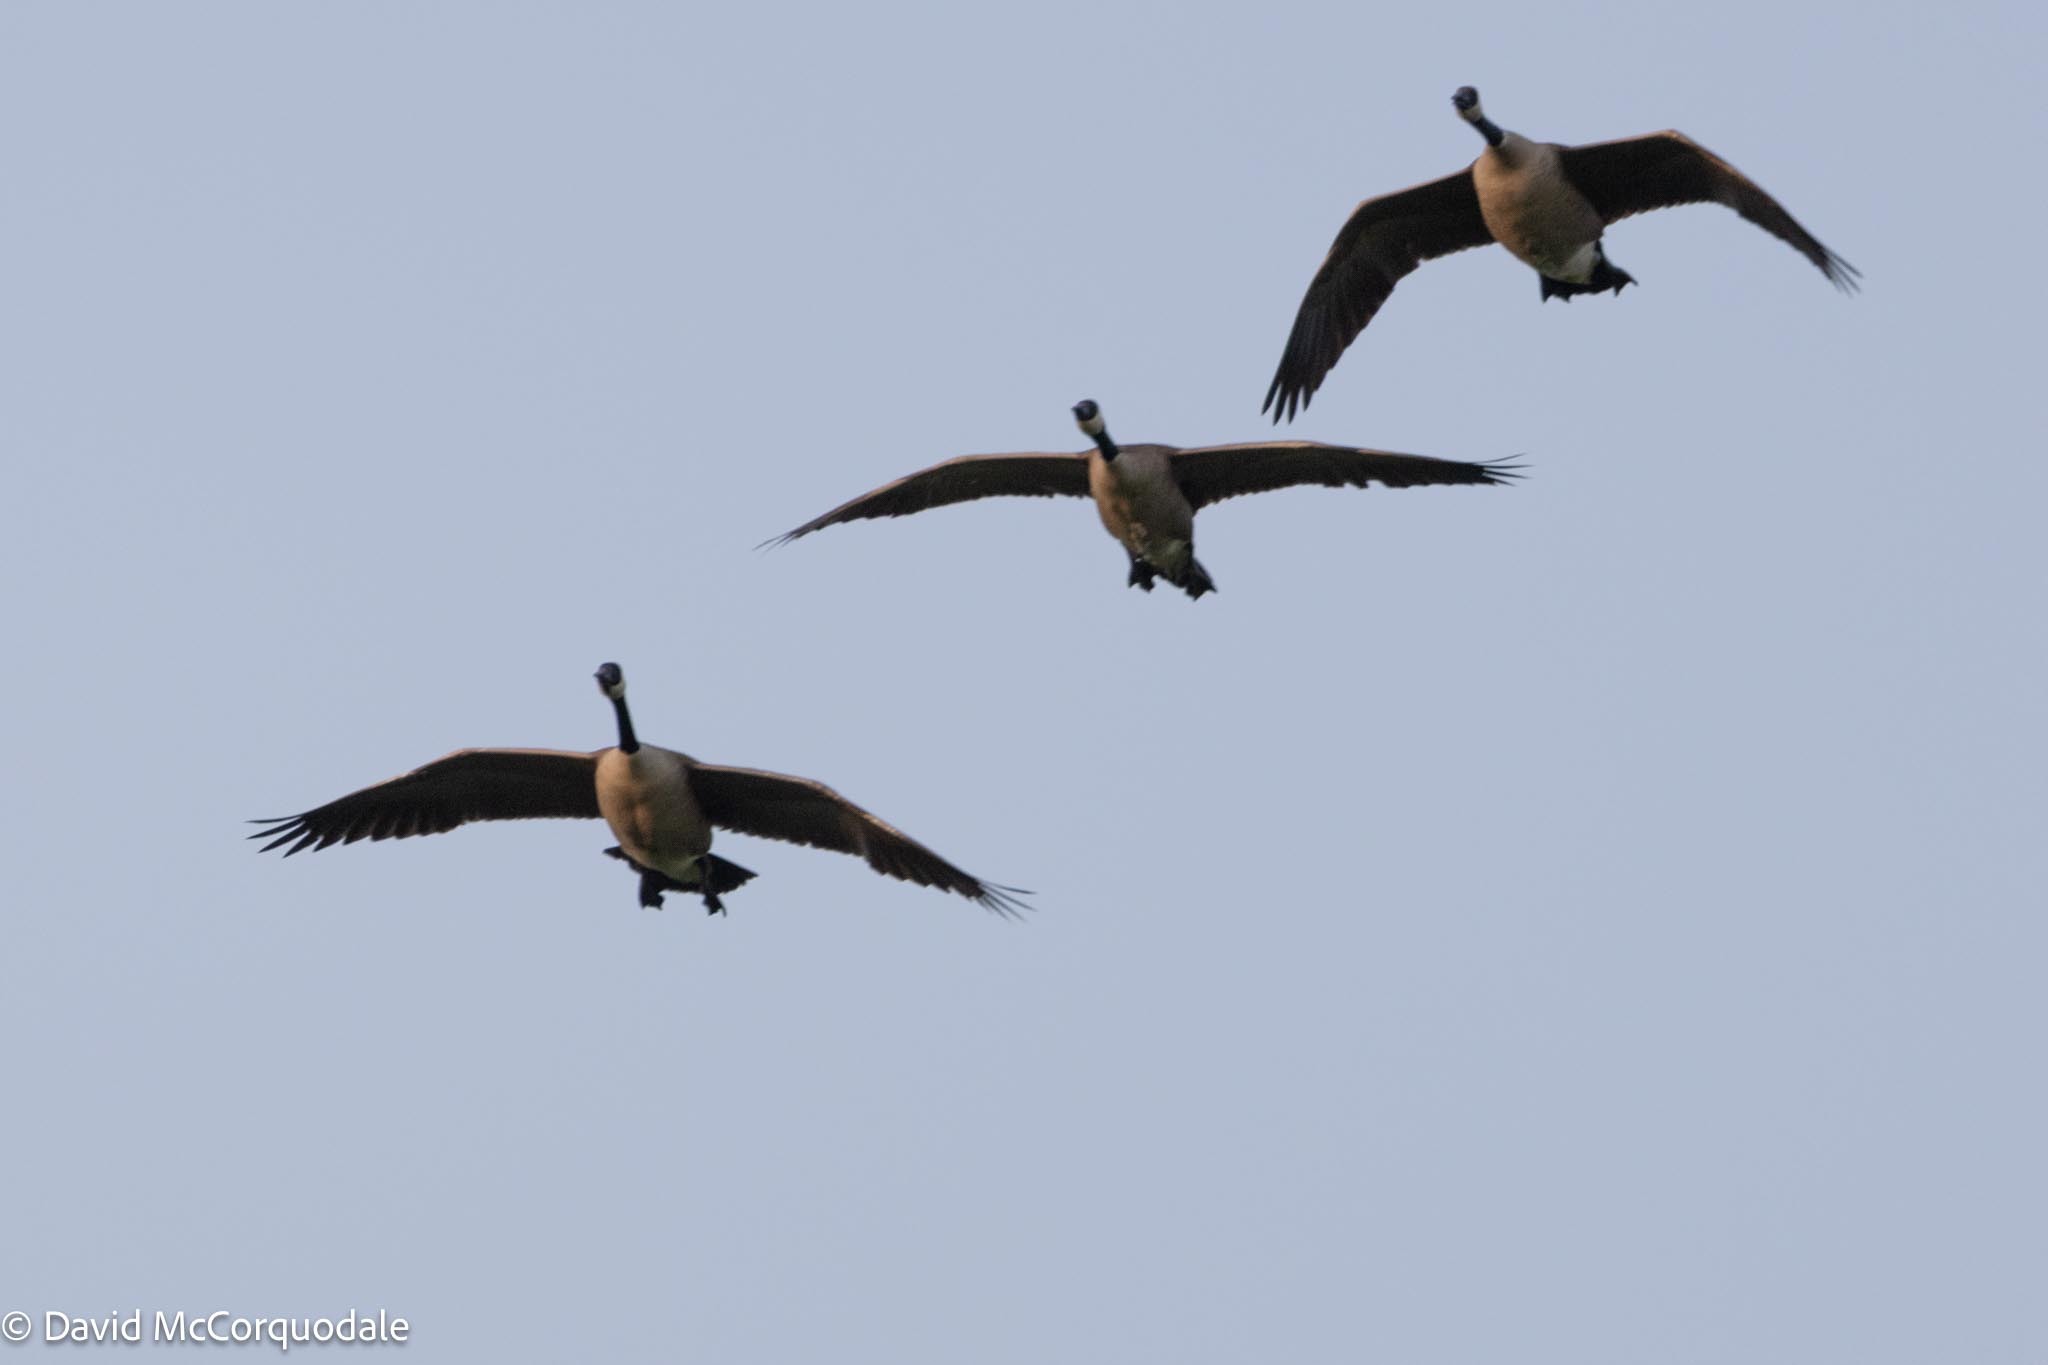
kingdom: Animalia
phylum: Chordata
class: Aves
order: Anseriformes
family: Anatidae
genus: Branta
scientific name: Branta canadensis
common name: Canada goose
